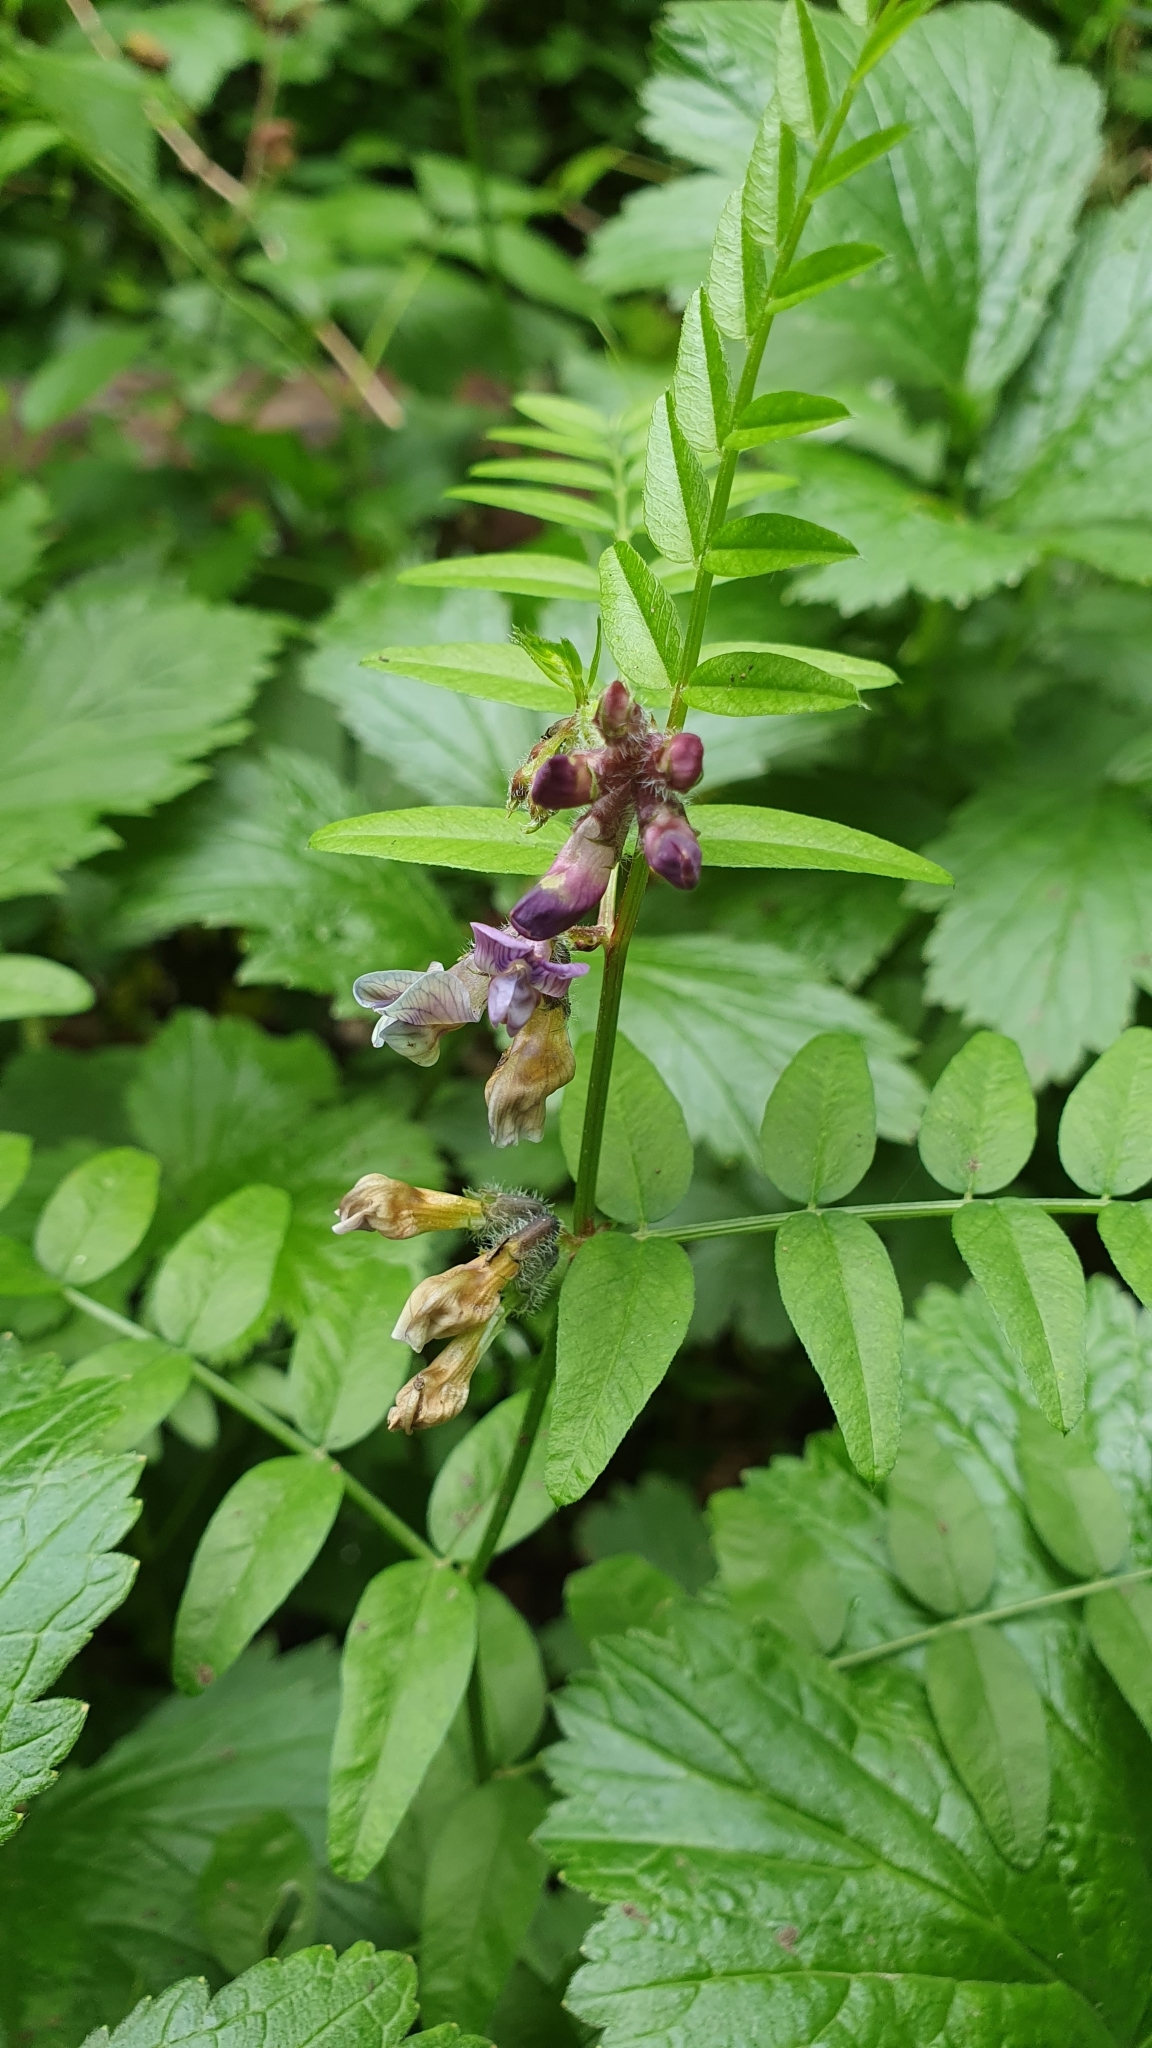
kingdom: Plantae
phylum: Tracheophyta
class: Magnoliopsida
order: Fabales
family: Fabaceae
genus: Vicia
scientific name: Vicia sepium
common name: Bush vetch
